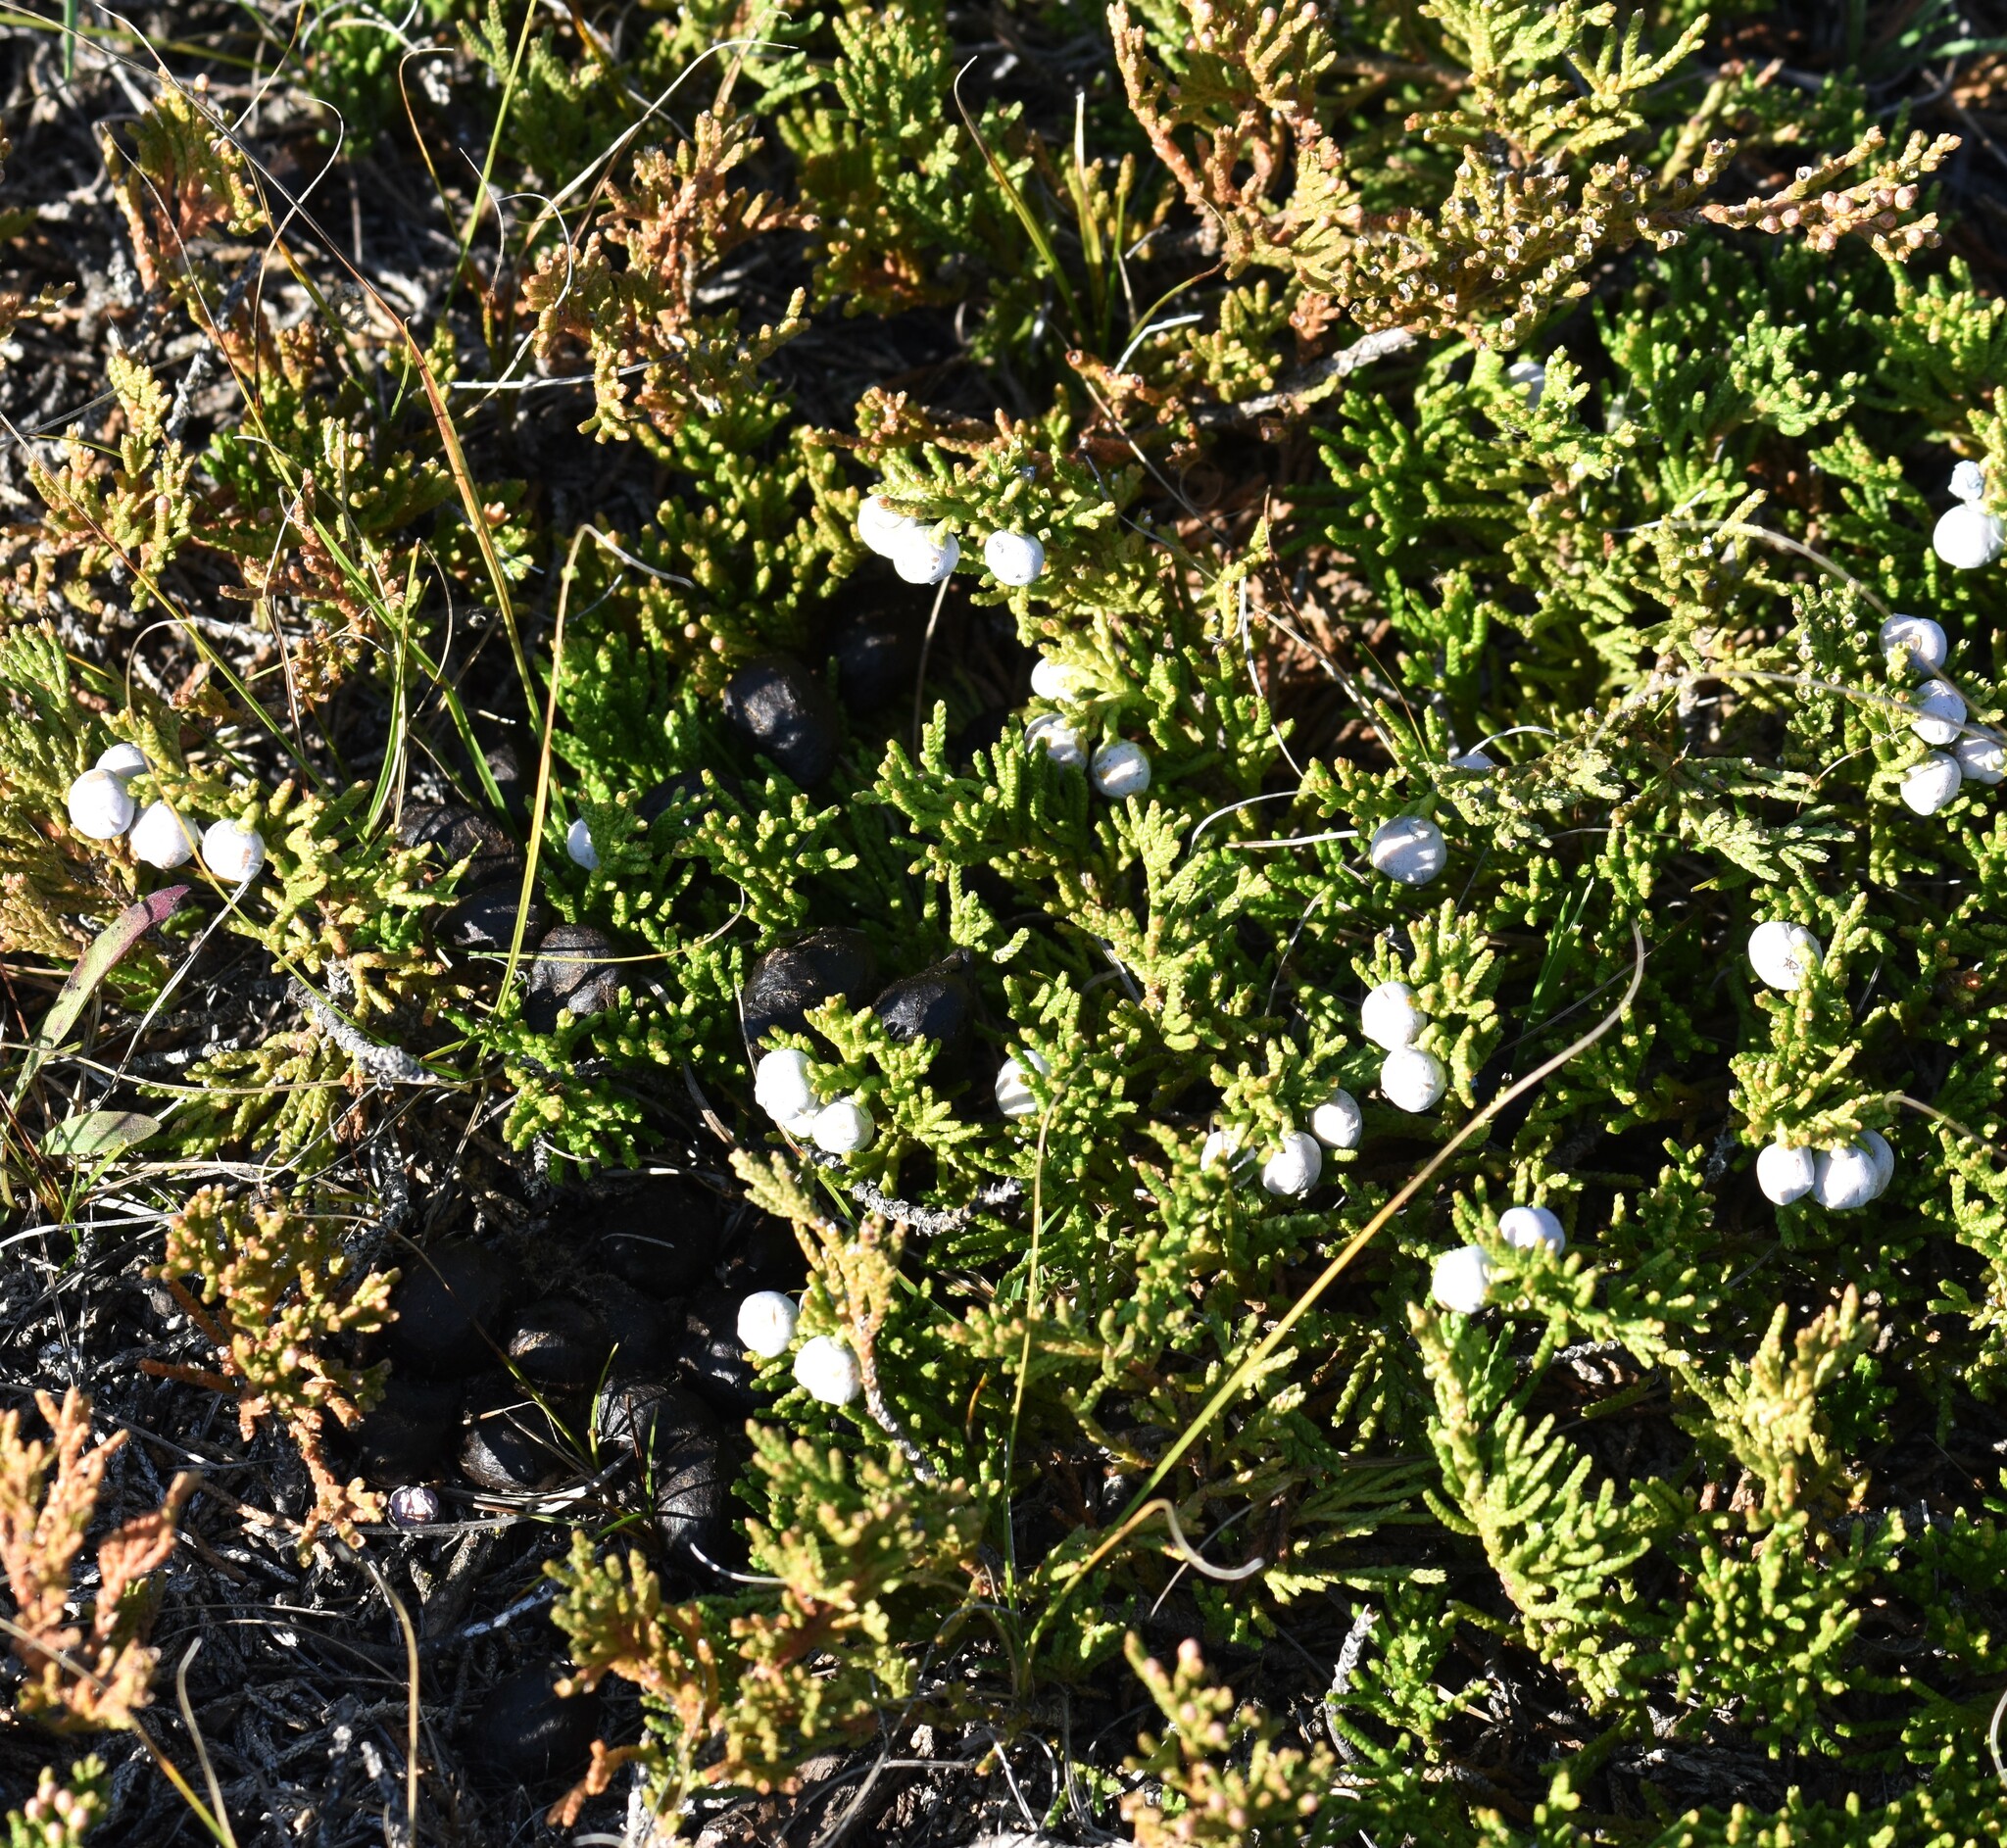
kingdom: Plantae
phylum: Tracheophyta
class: Pinopsida
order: Pinales
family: Cupressaceae
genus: Juniperus
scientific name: Juniperus horizontalis
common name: Creeping juniper
